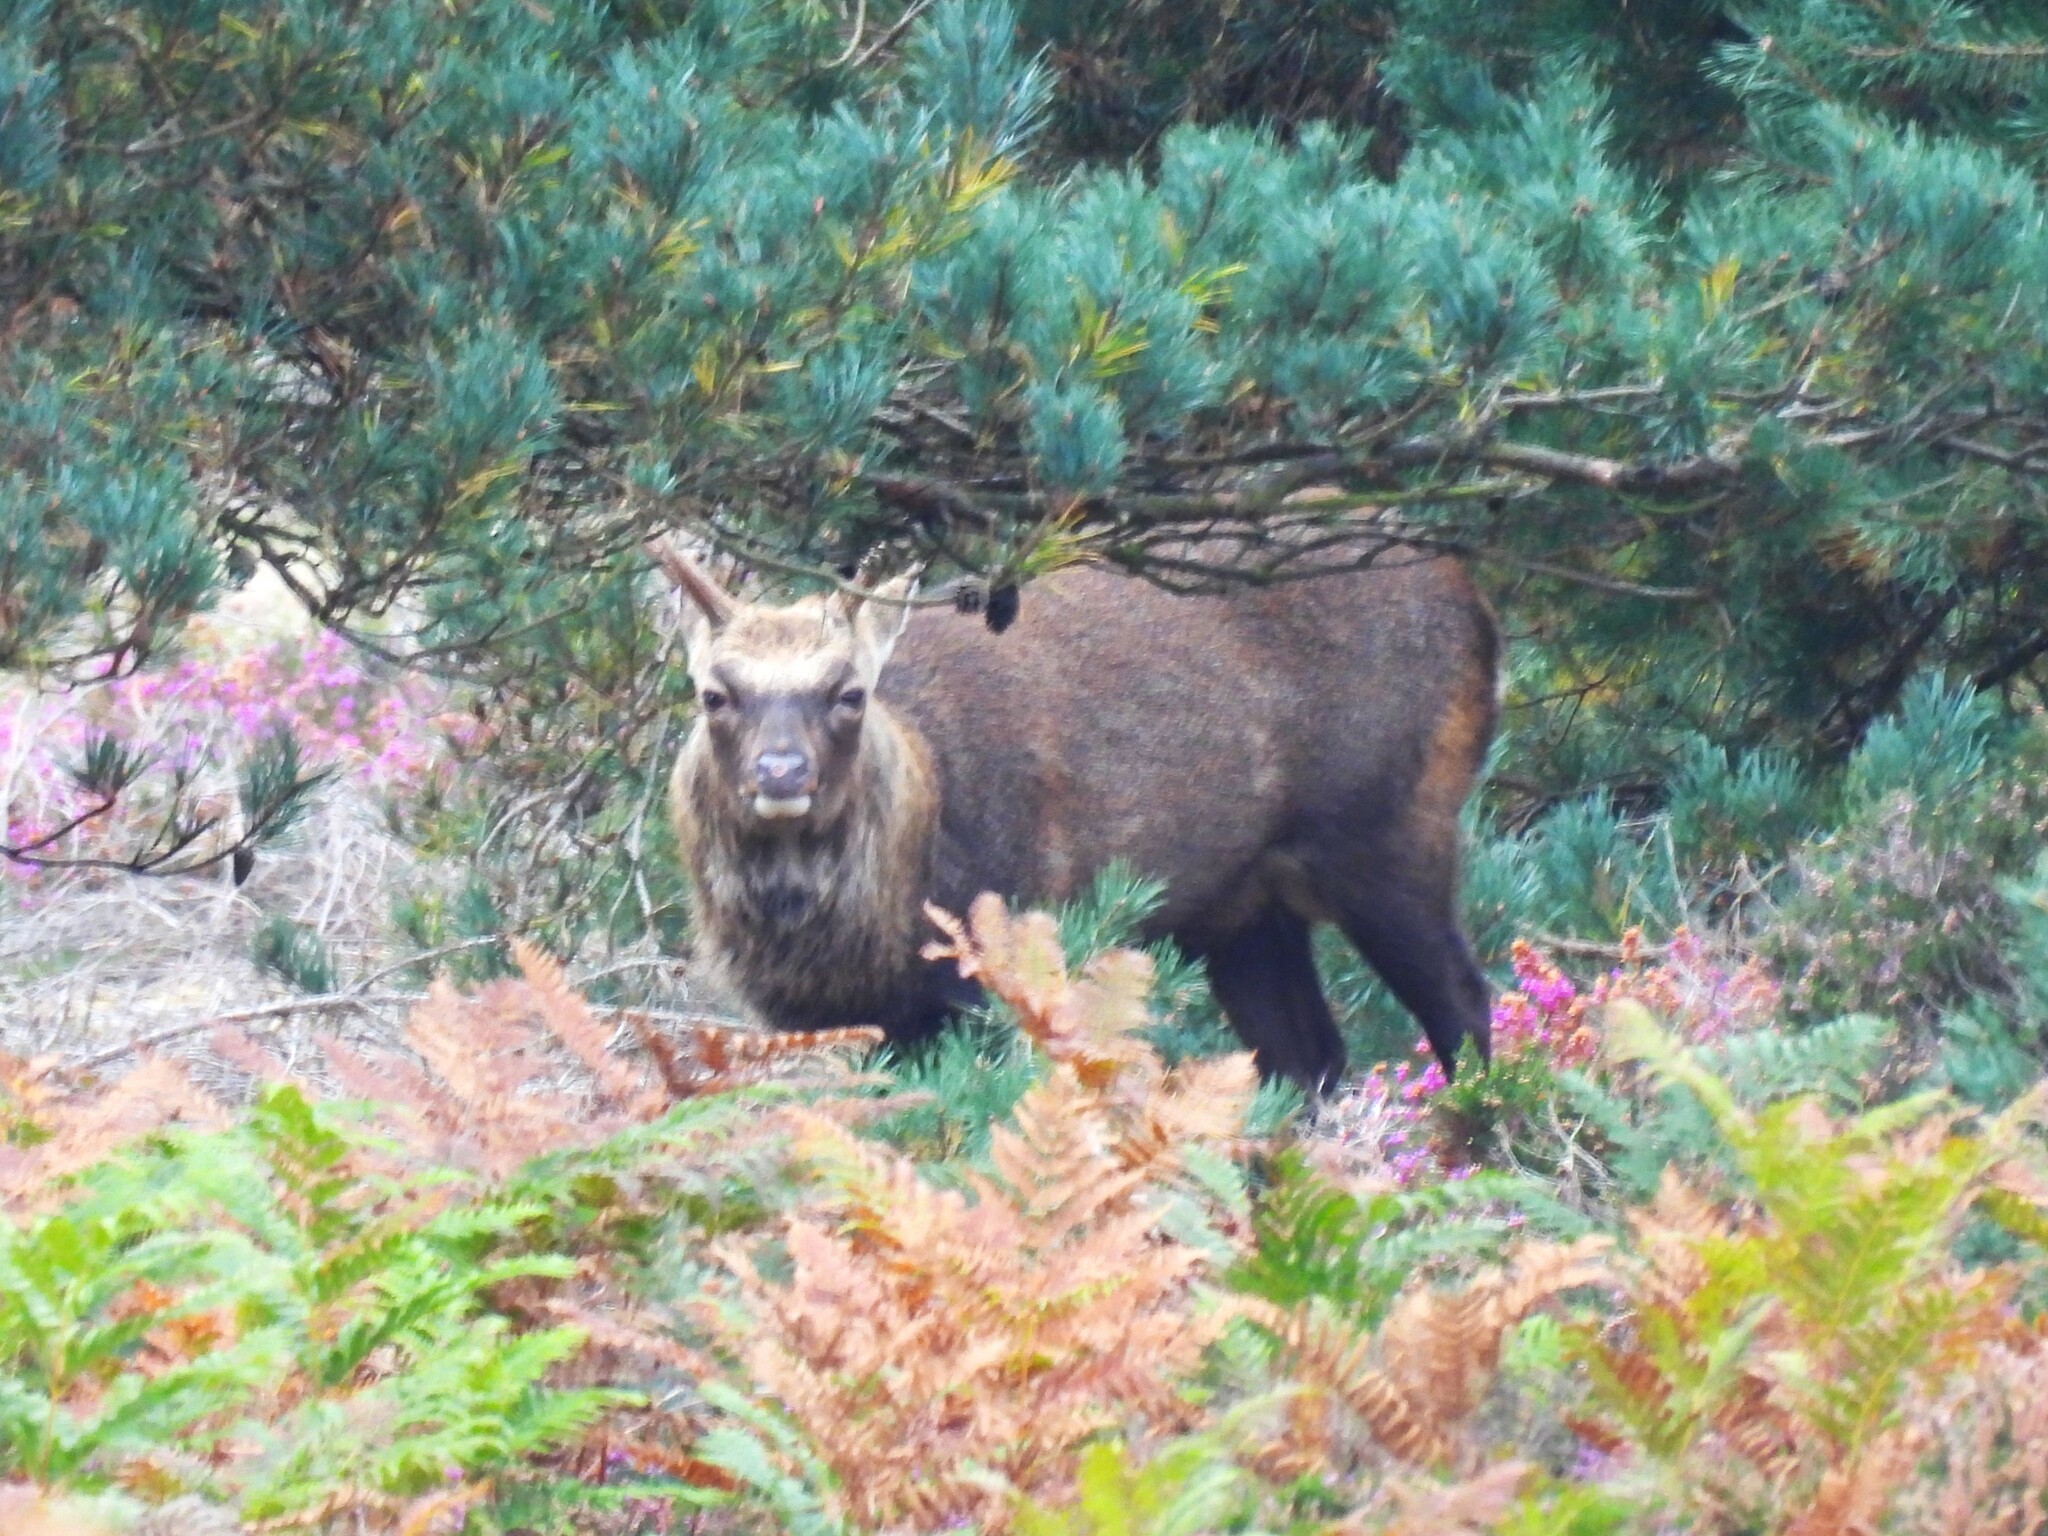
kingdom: Animalia
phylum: Chordata
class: Mammalia
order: Artiodactyla
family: Cervidae
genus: Cervus
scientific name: Cervus nippon
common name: Sika deer
